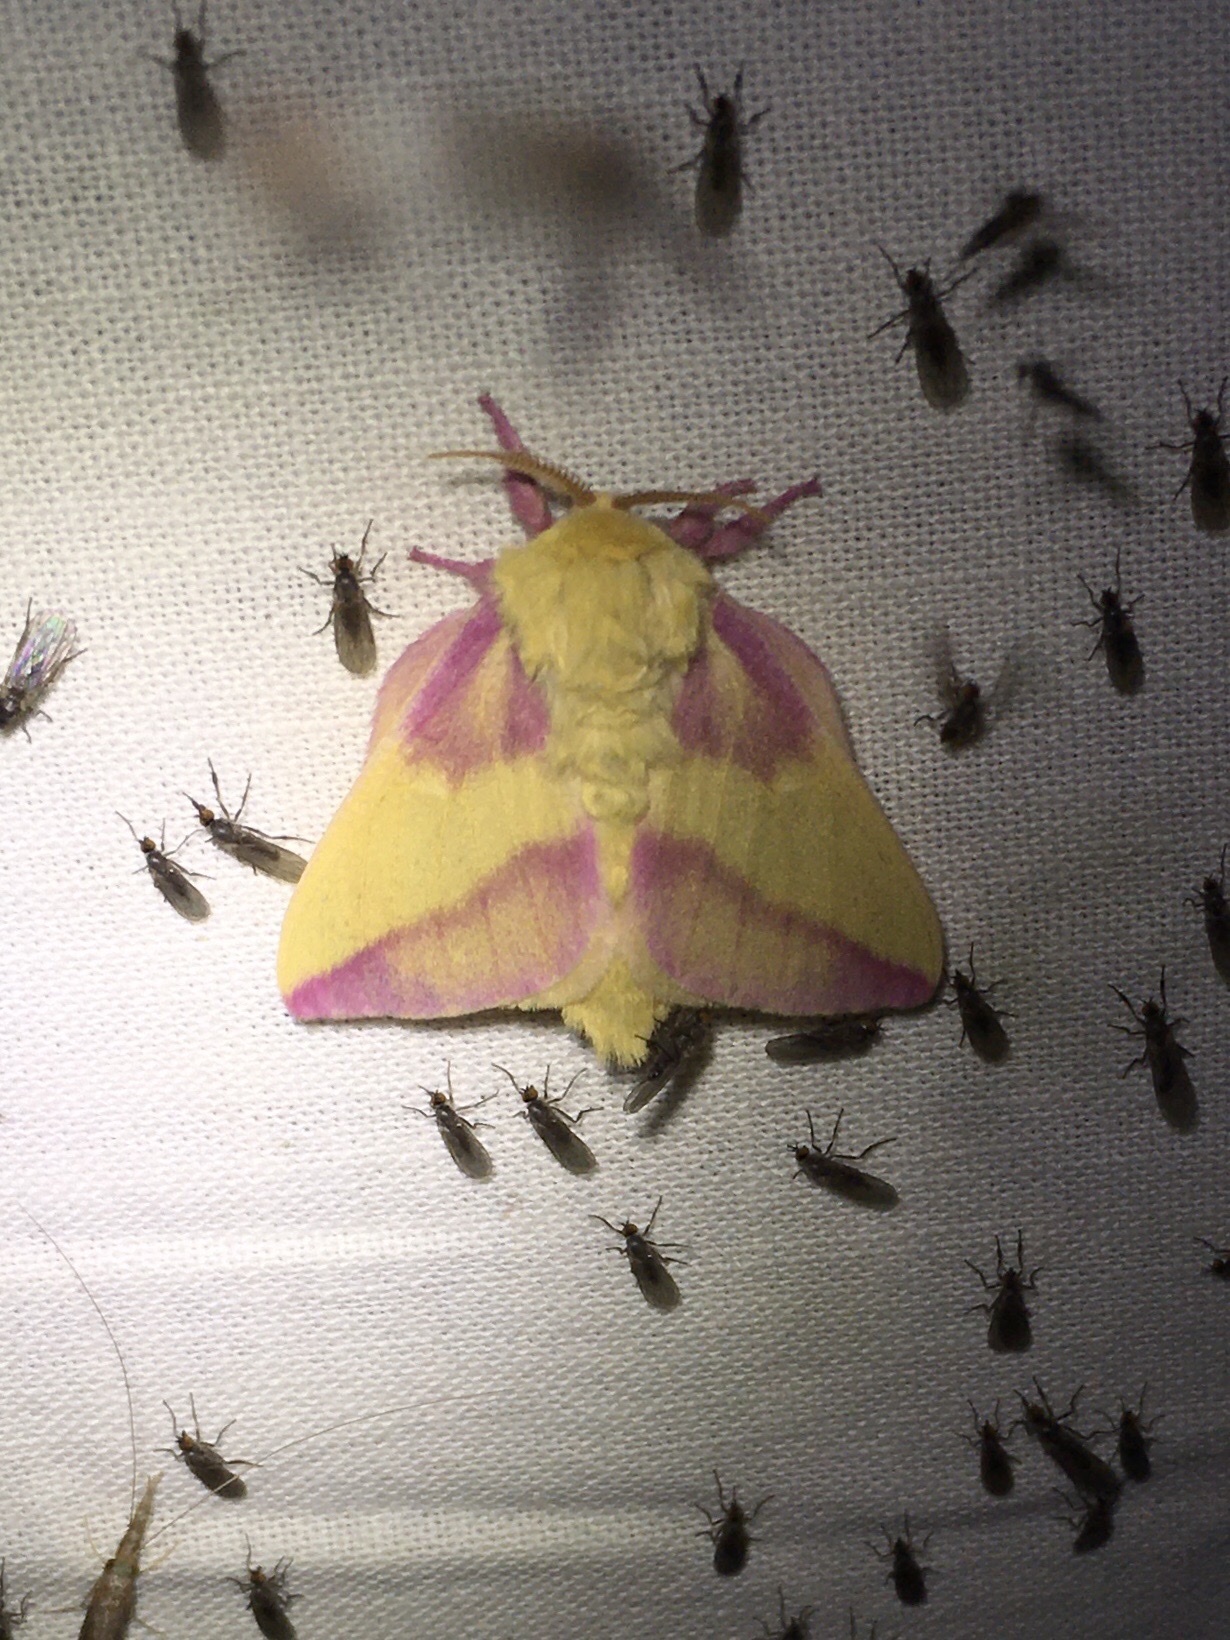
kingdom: Animalia
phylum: Arthropoda
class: Insecta
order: Lepidoptera
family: Saturniidae
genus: Dryocampa
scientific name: Dryocampa rubicunda
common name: Rosy maple moth
